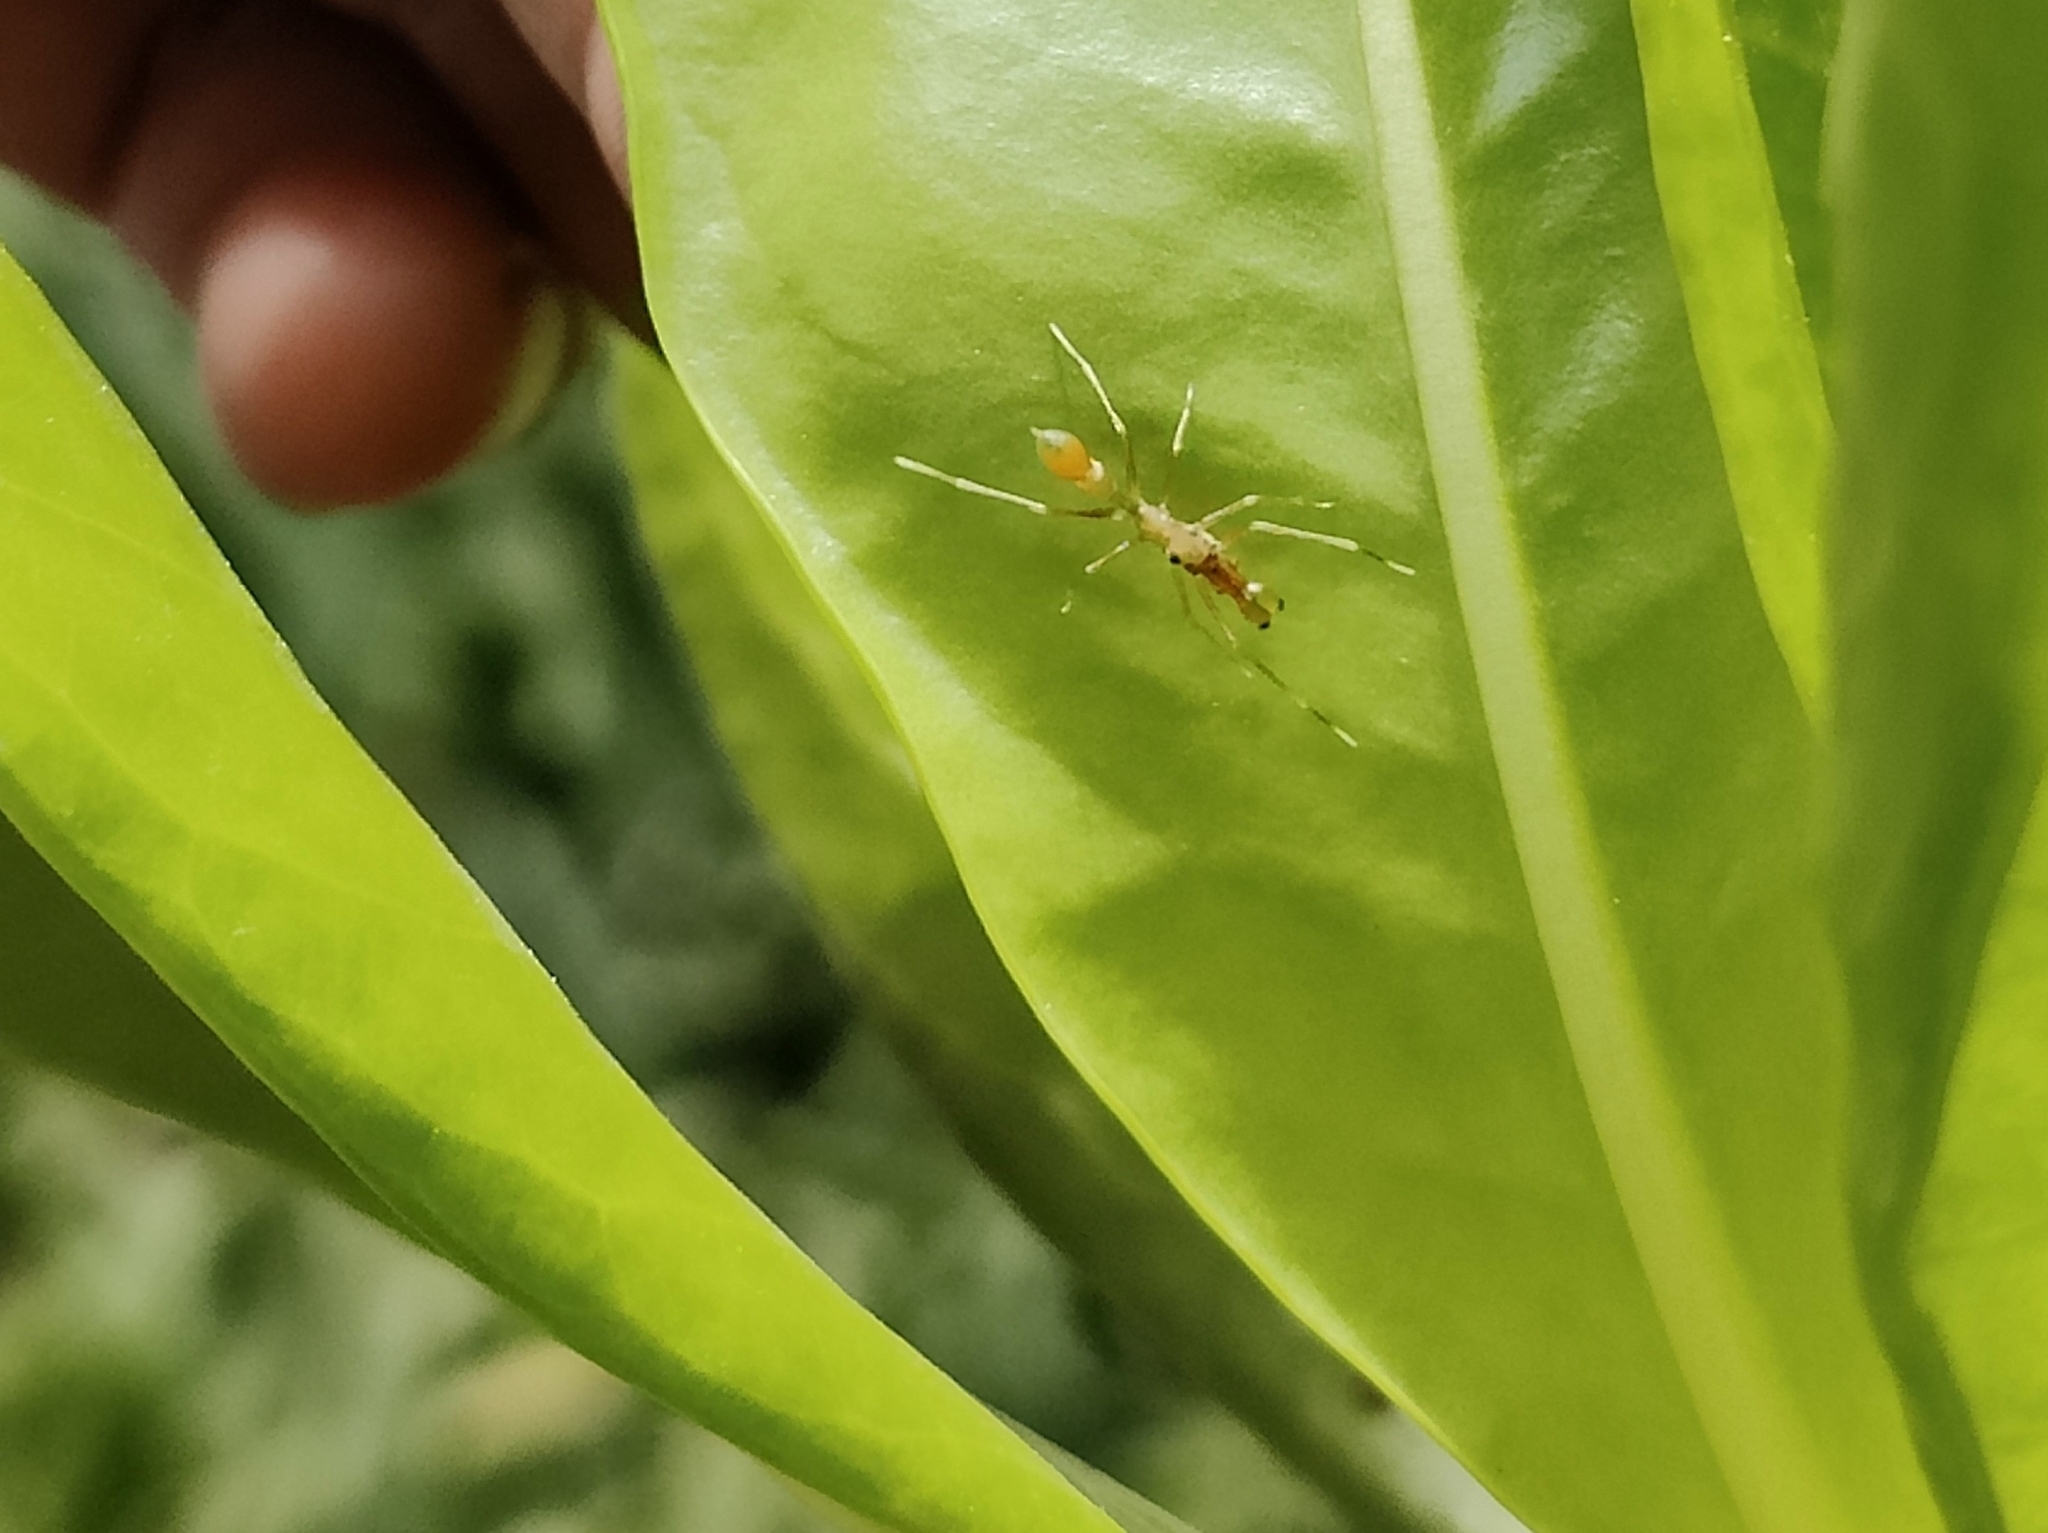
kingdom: Animalia
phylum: Arthropoda
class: Arachnida
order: Araneae
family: Salticidae
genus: Myrmaplata
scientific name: Myrmaplata plataleoides
